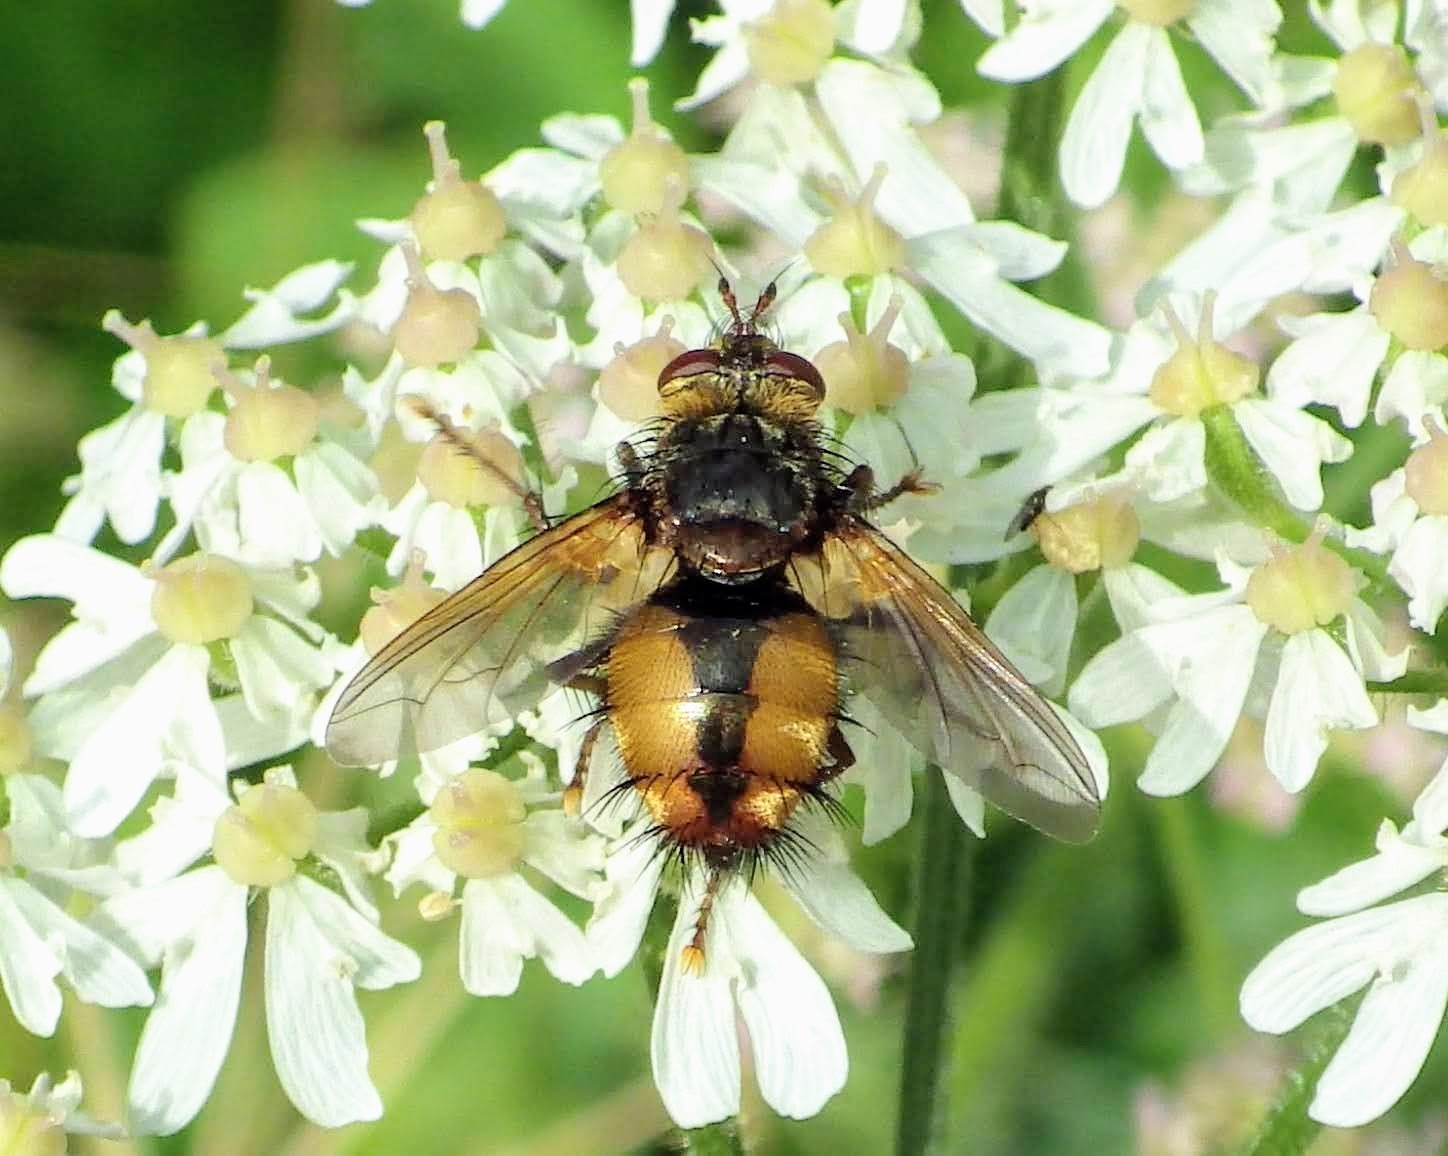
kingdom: Animalia
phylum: Arthropoda
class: Insecta
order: Diptera
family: Tachinidae
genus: Tachina
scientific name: Tachina fera
